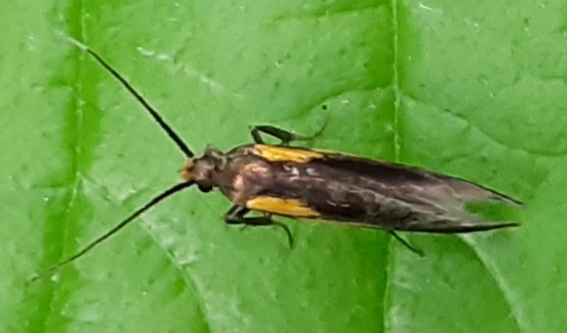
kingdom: Animalia
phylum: Arthropoda
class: Insecta
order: Lepidoptera
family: Oecophoridae
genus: Mathildana
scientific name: Mathildana newmanella
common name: Newman's mathildana moth
